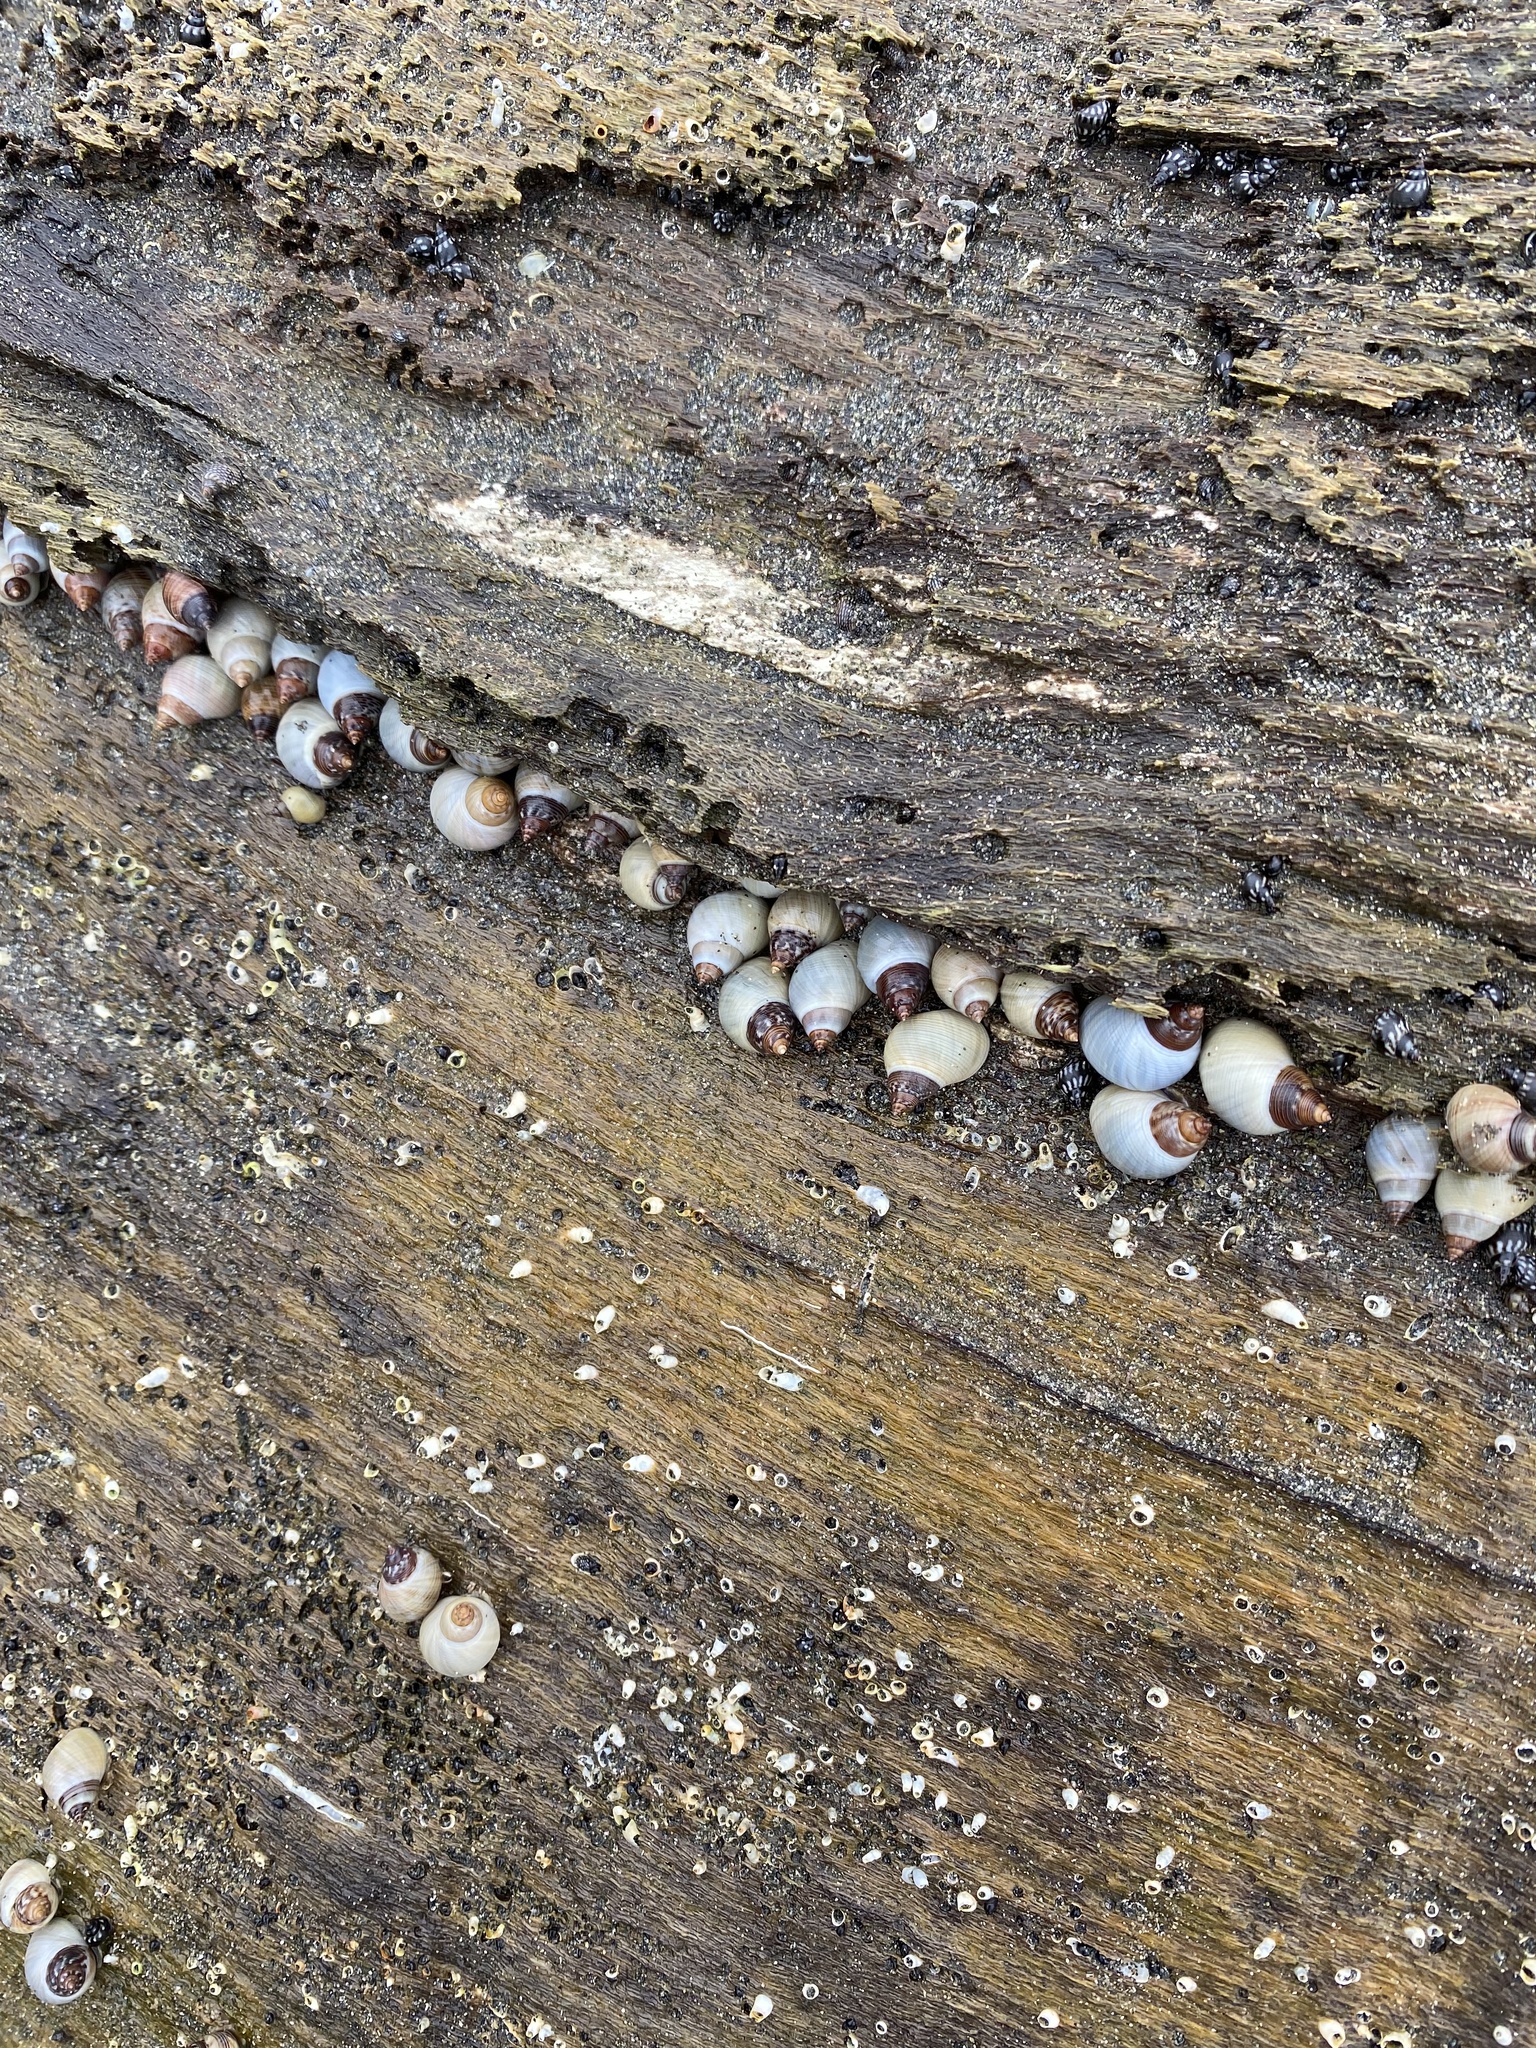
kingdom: Animalia
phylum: Mollusca
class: Gastropoda
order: Littorinimorpha
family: Littorinidae
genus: Littoraria
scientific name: Littoraria nebulosa
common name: Cloudy periwinkle
